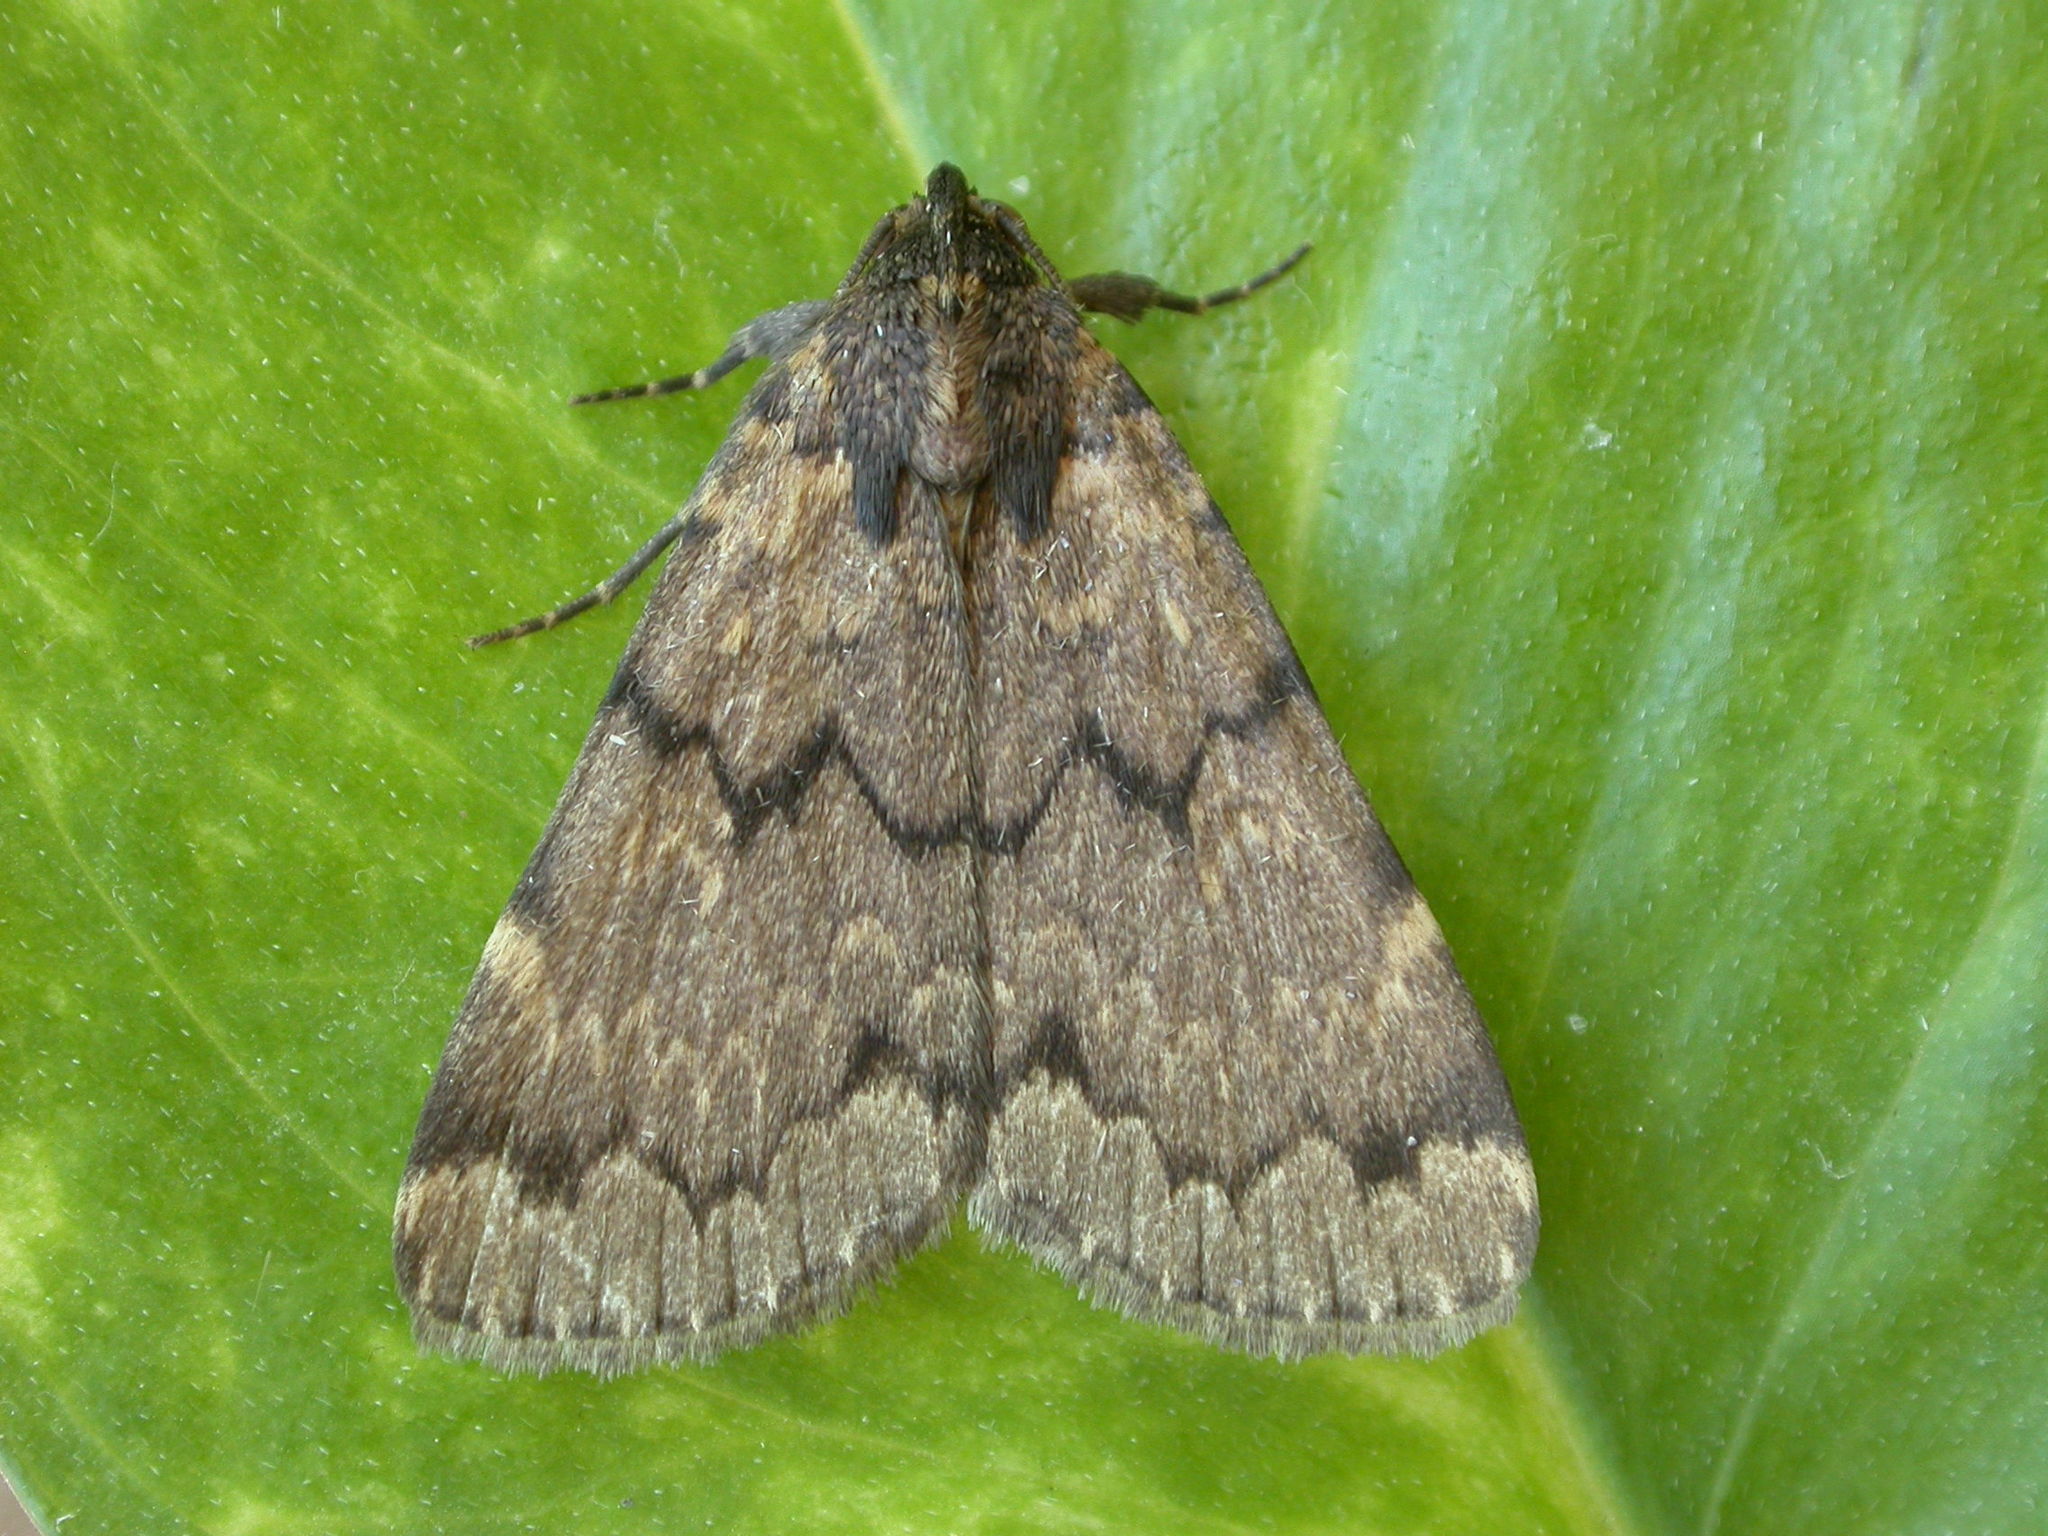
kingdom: Animalia
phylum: Arthropoda
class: Insecta
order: Lepidoptera
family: Erebidae
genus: Mormoscopa
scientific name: Mormoscopa phricozona
